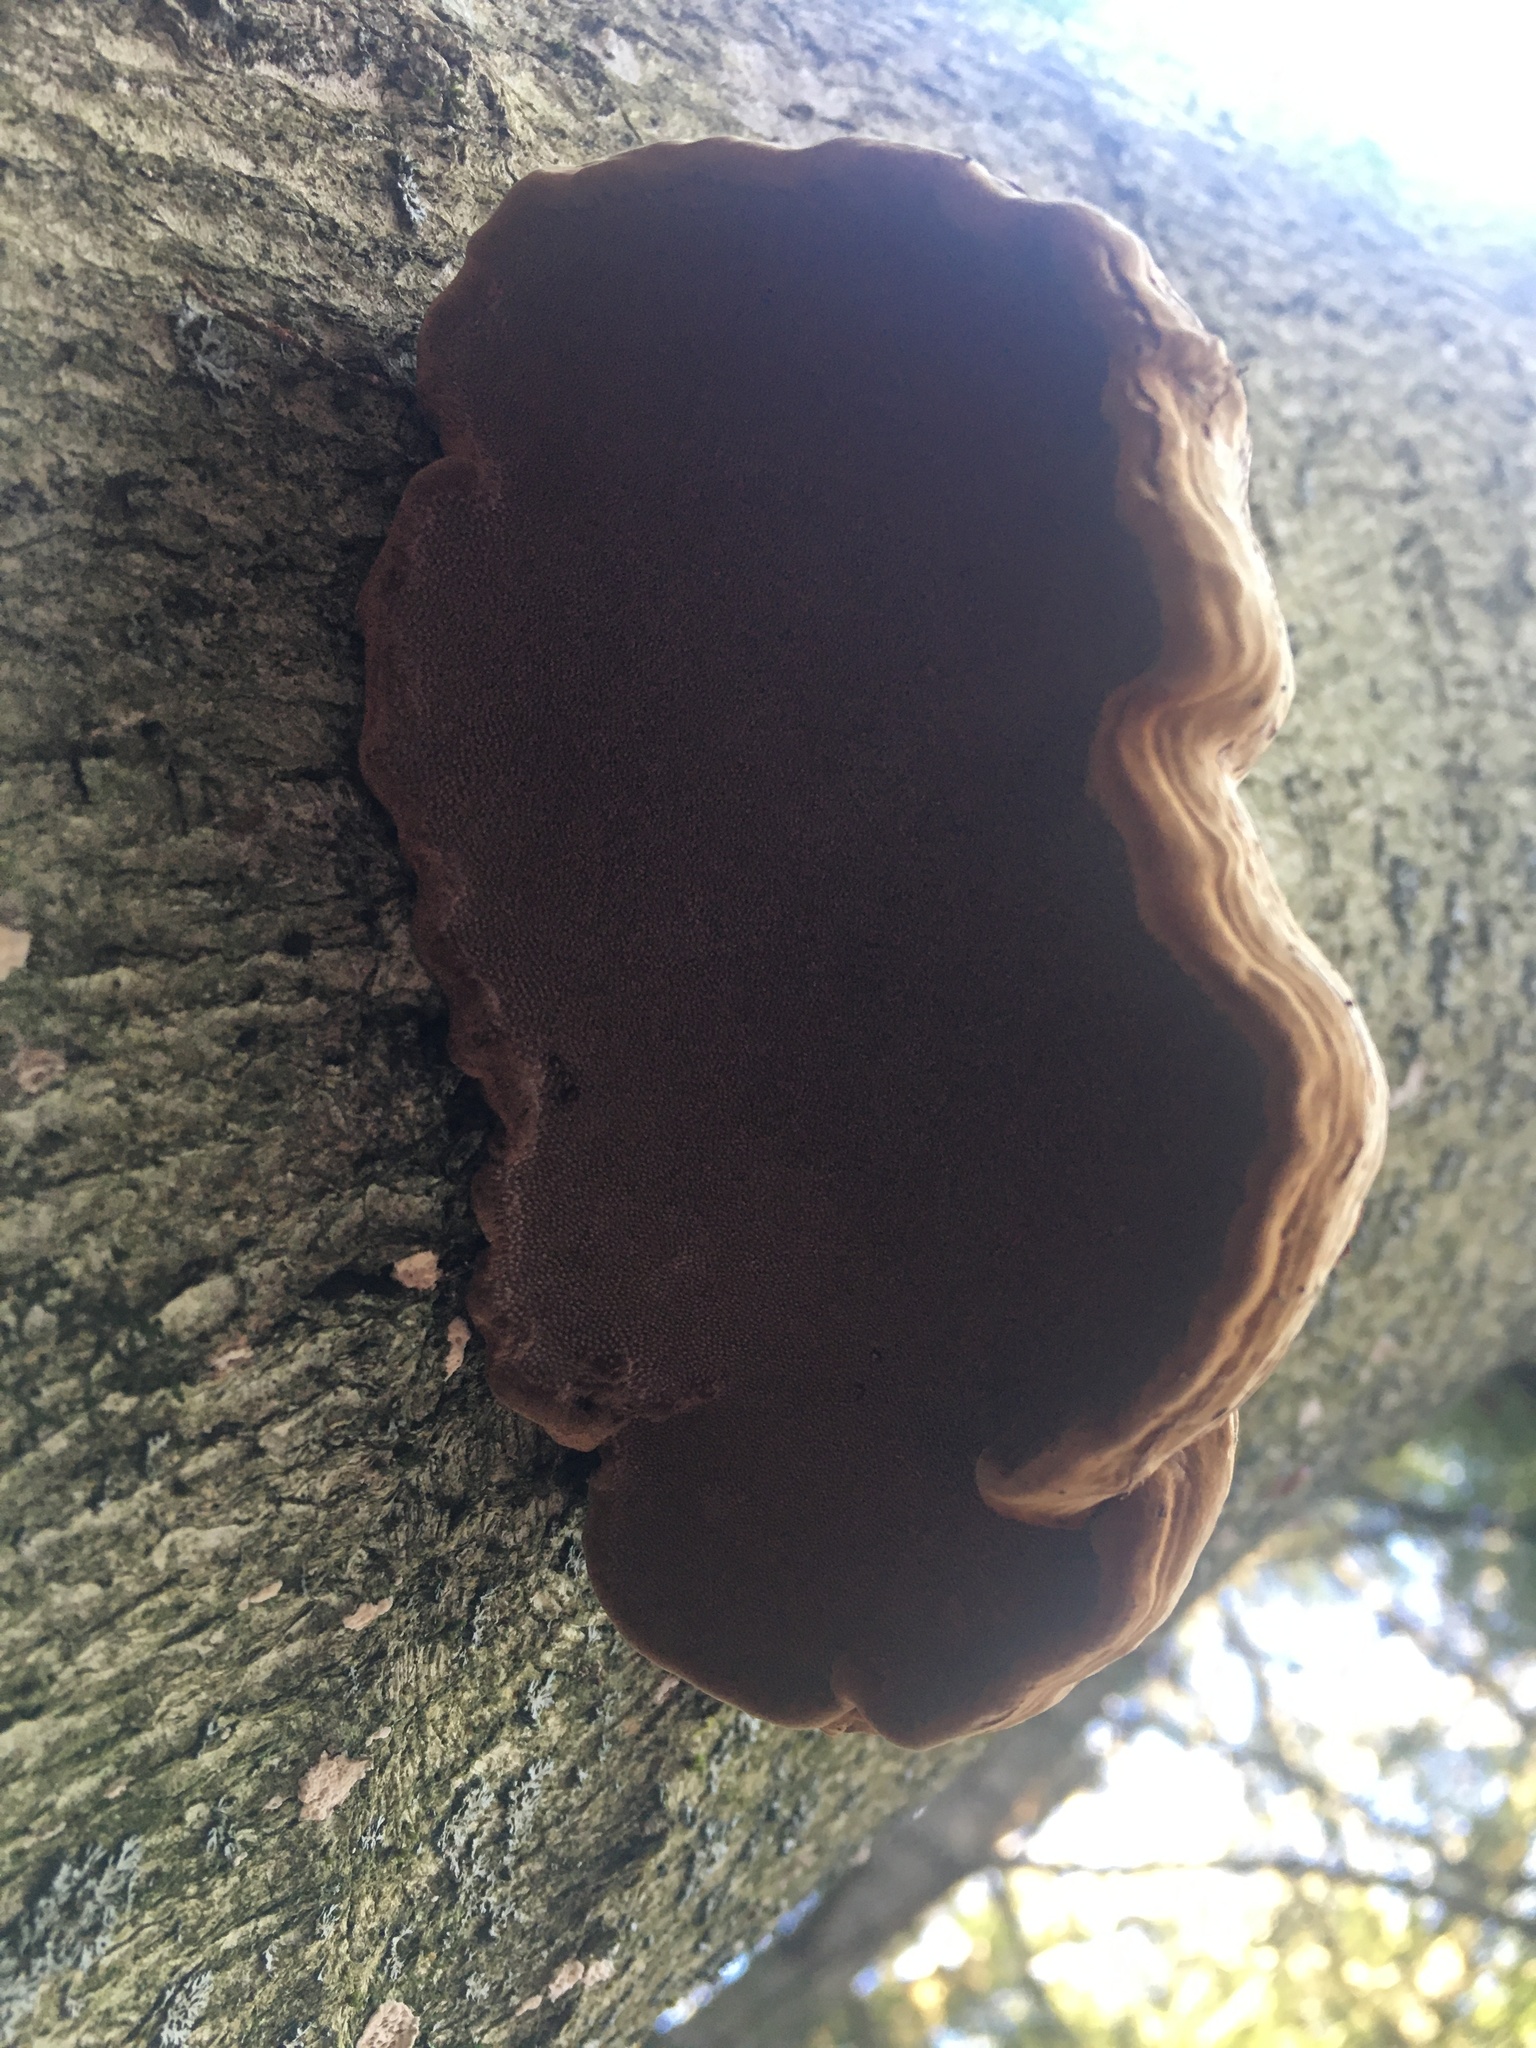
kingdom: Fungi
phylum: Basidiomycota
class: Agaricomycetes
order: Polyporales
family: Polyporaceae
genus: Fomes
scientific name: Fomes fomentarius
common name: Hoof fungus
